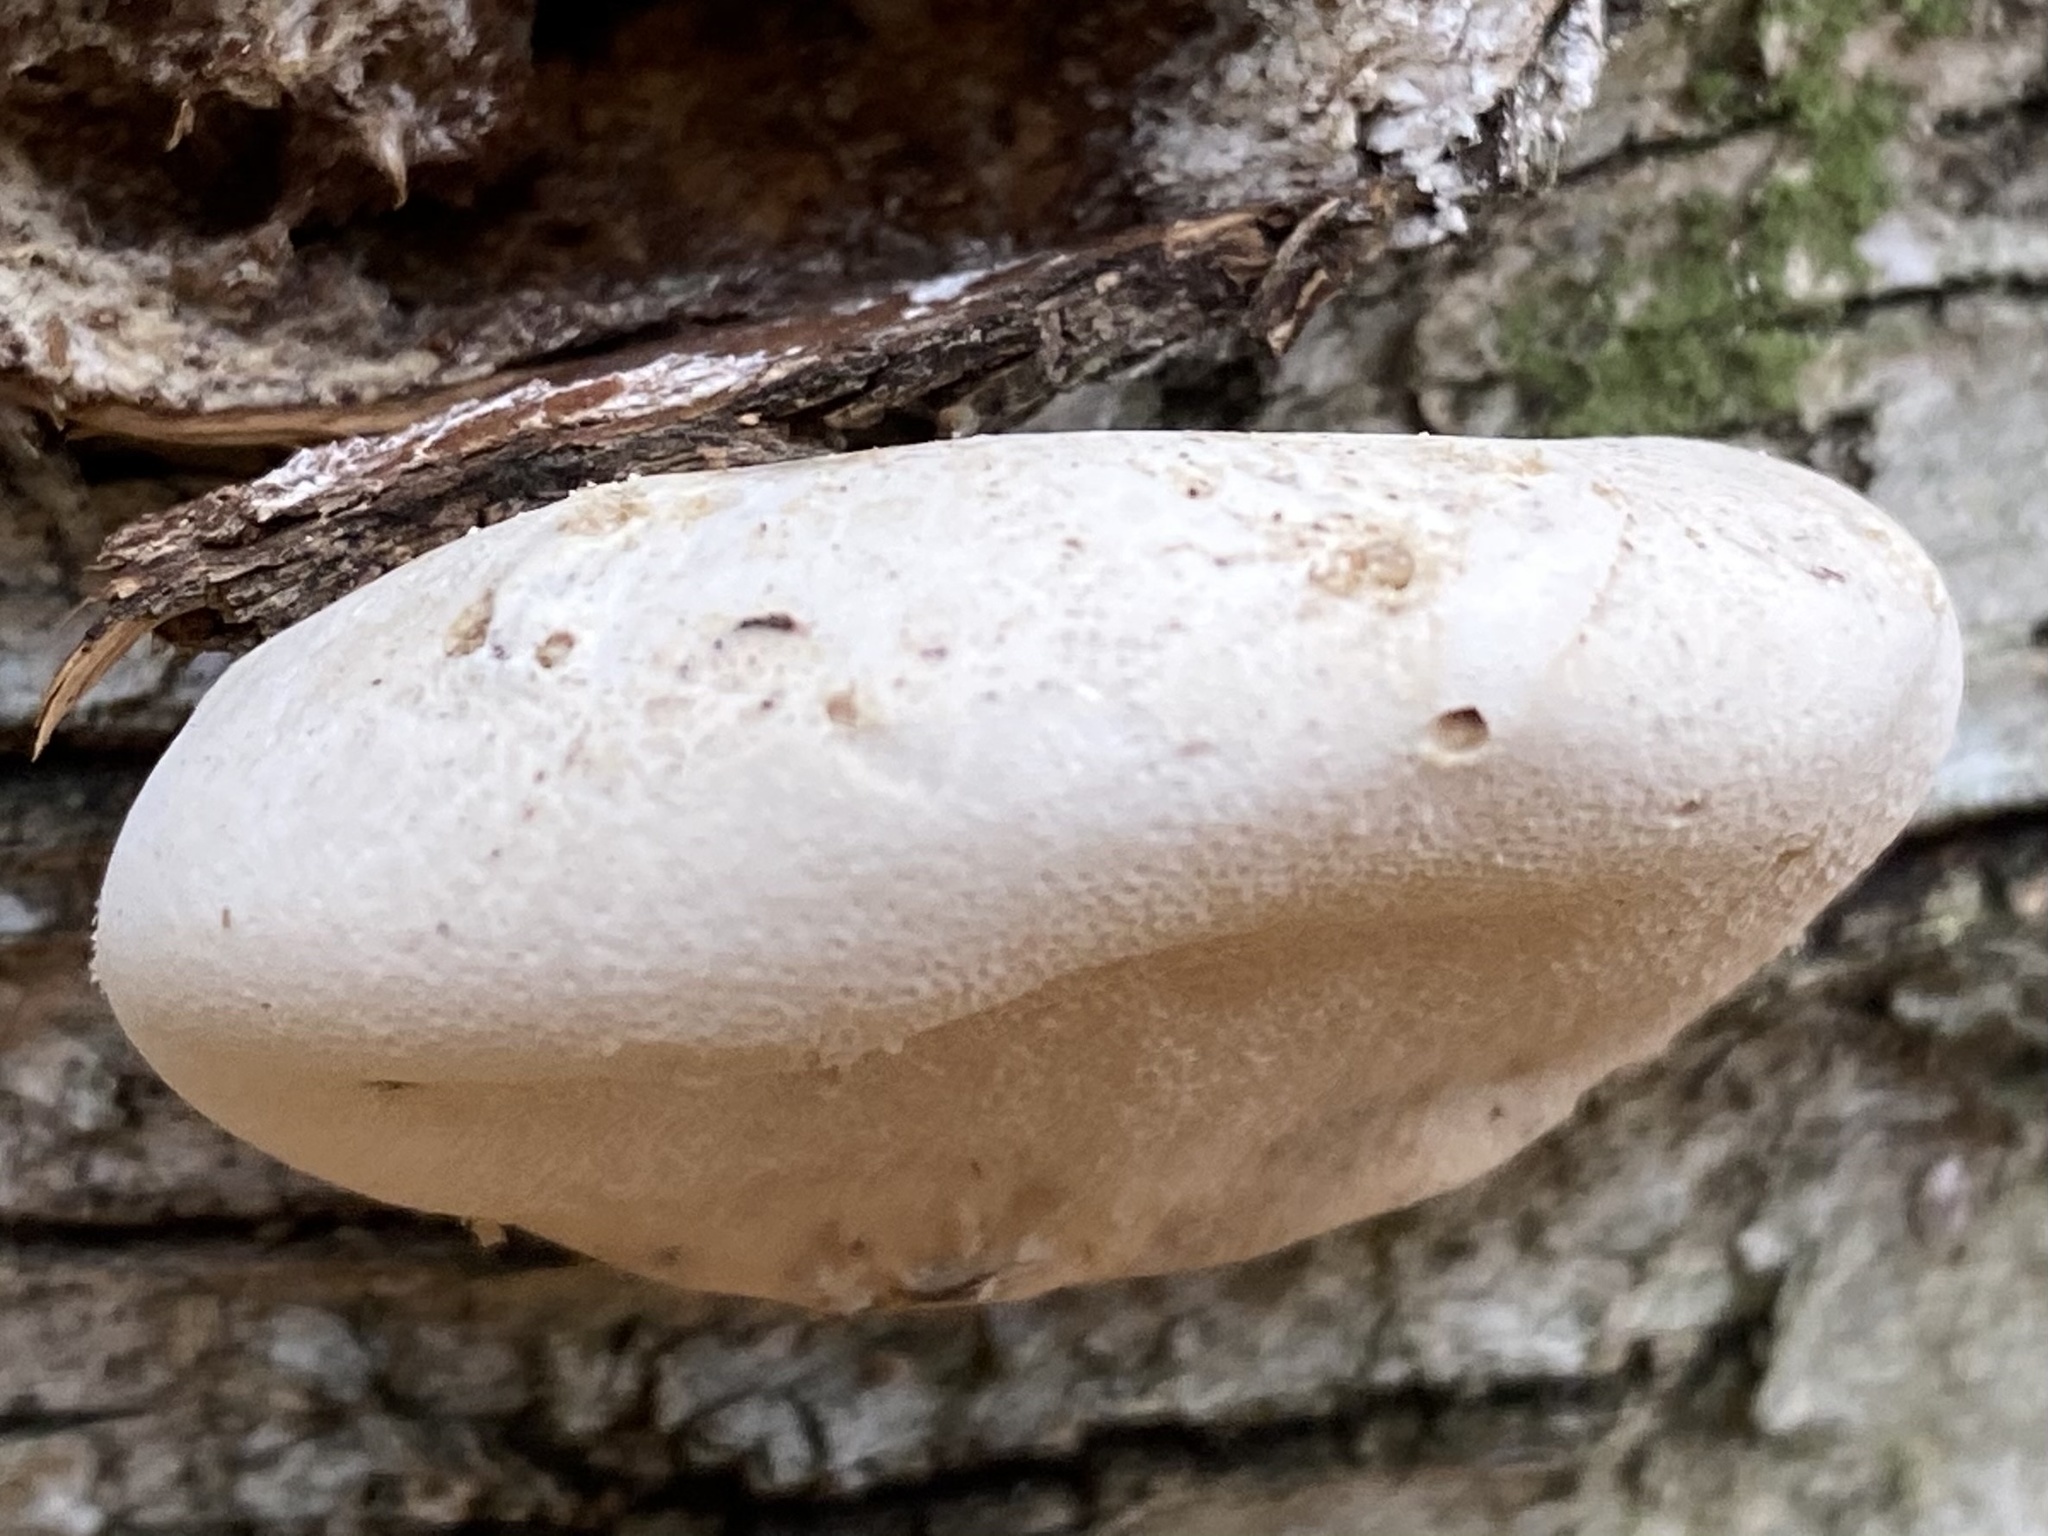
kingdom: Fungi
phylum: Basidiomycota
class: Agaricomycetes
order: Polyporales
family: Fomitopsidaceae
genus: Fomitopsis
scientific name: Fomitopsis betulina
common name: Birch polypore
